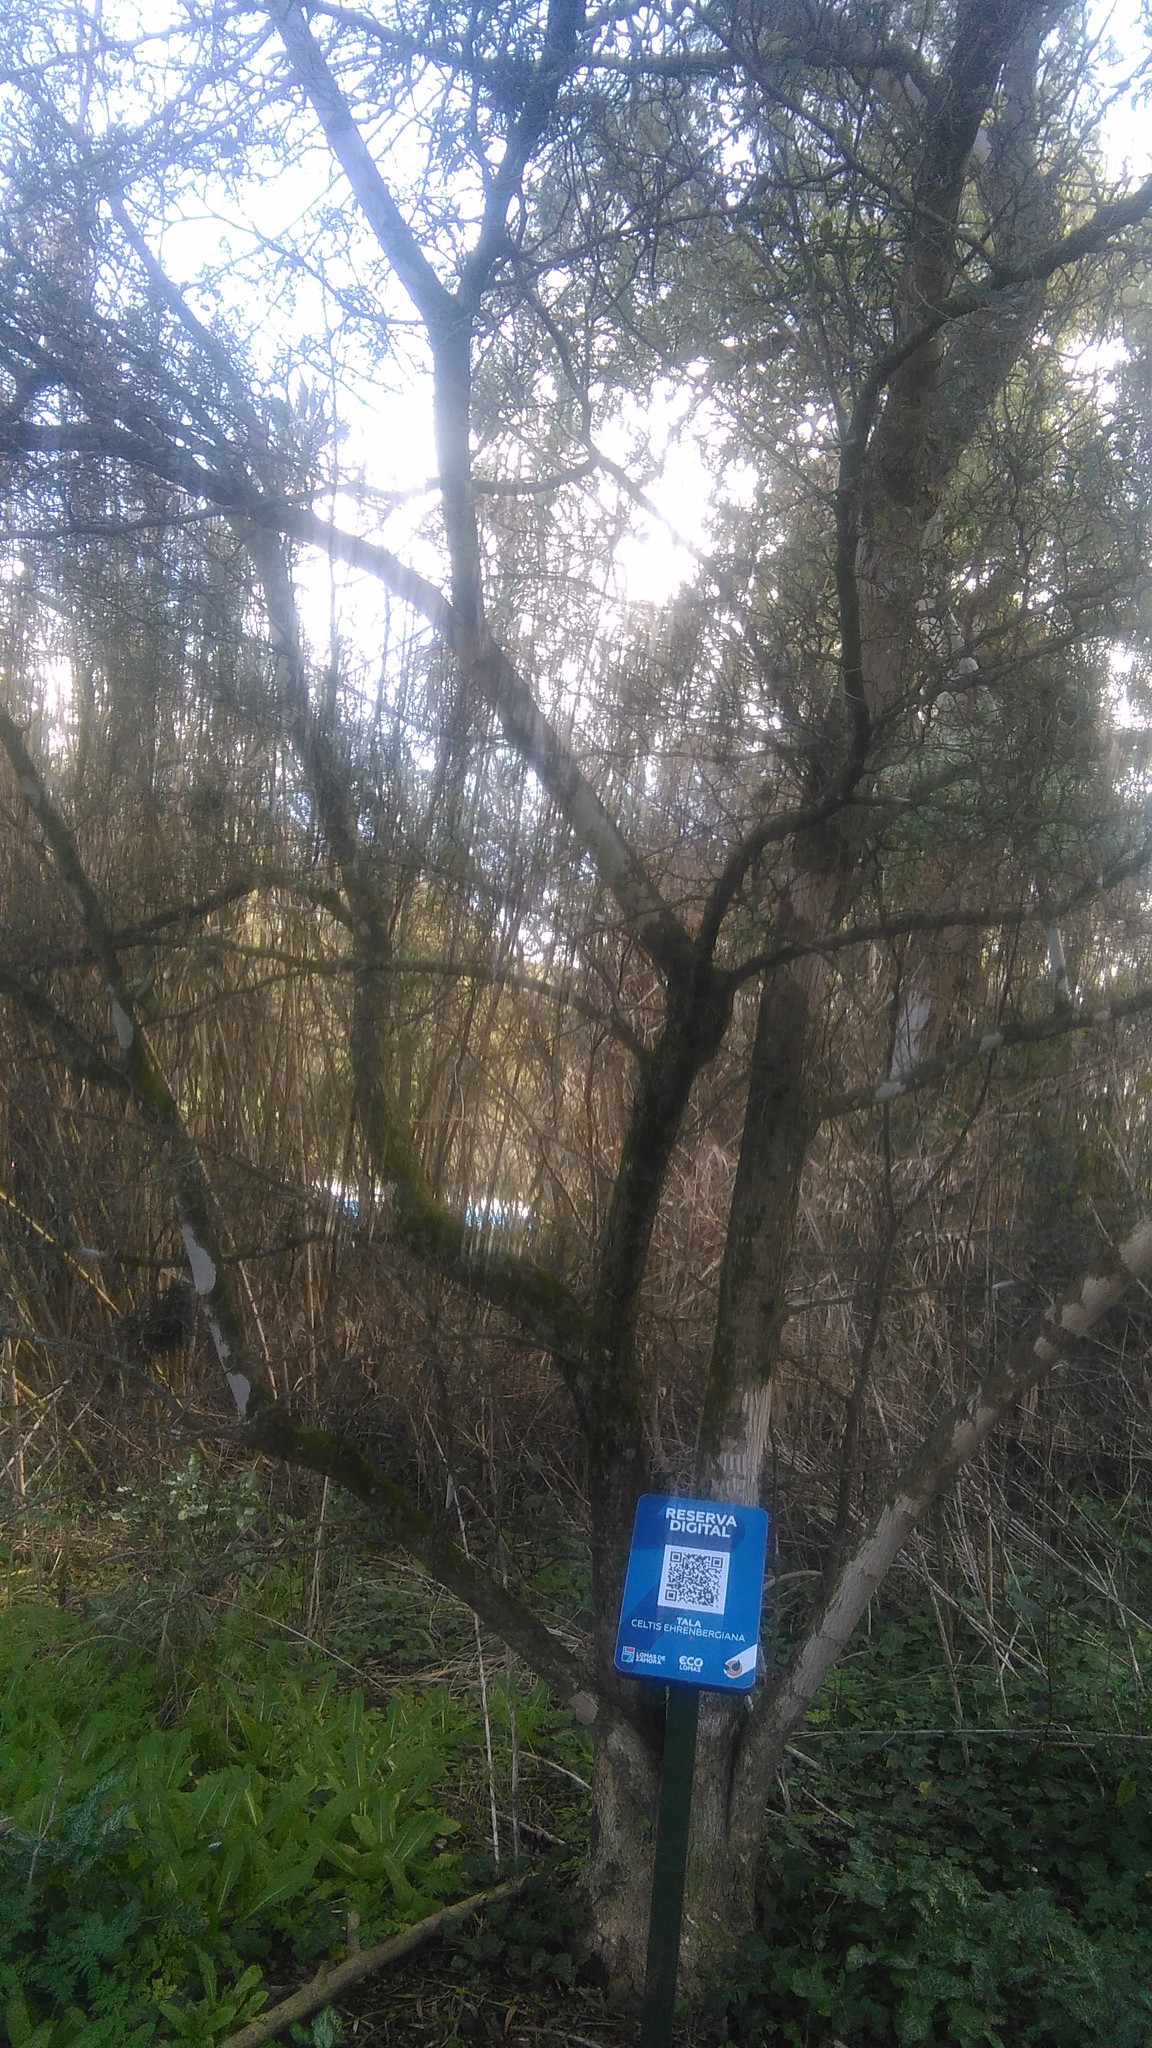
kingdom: Plantae
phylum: Tracheophyta
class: Magnoliopsida
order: Rosales
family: Cannabaceae
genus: Celtis
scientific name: Celtis tala
